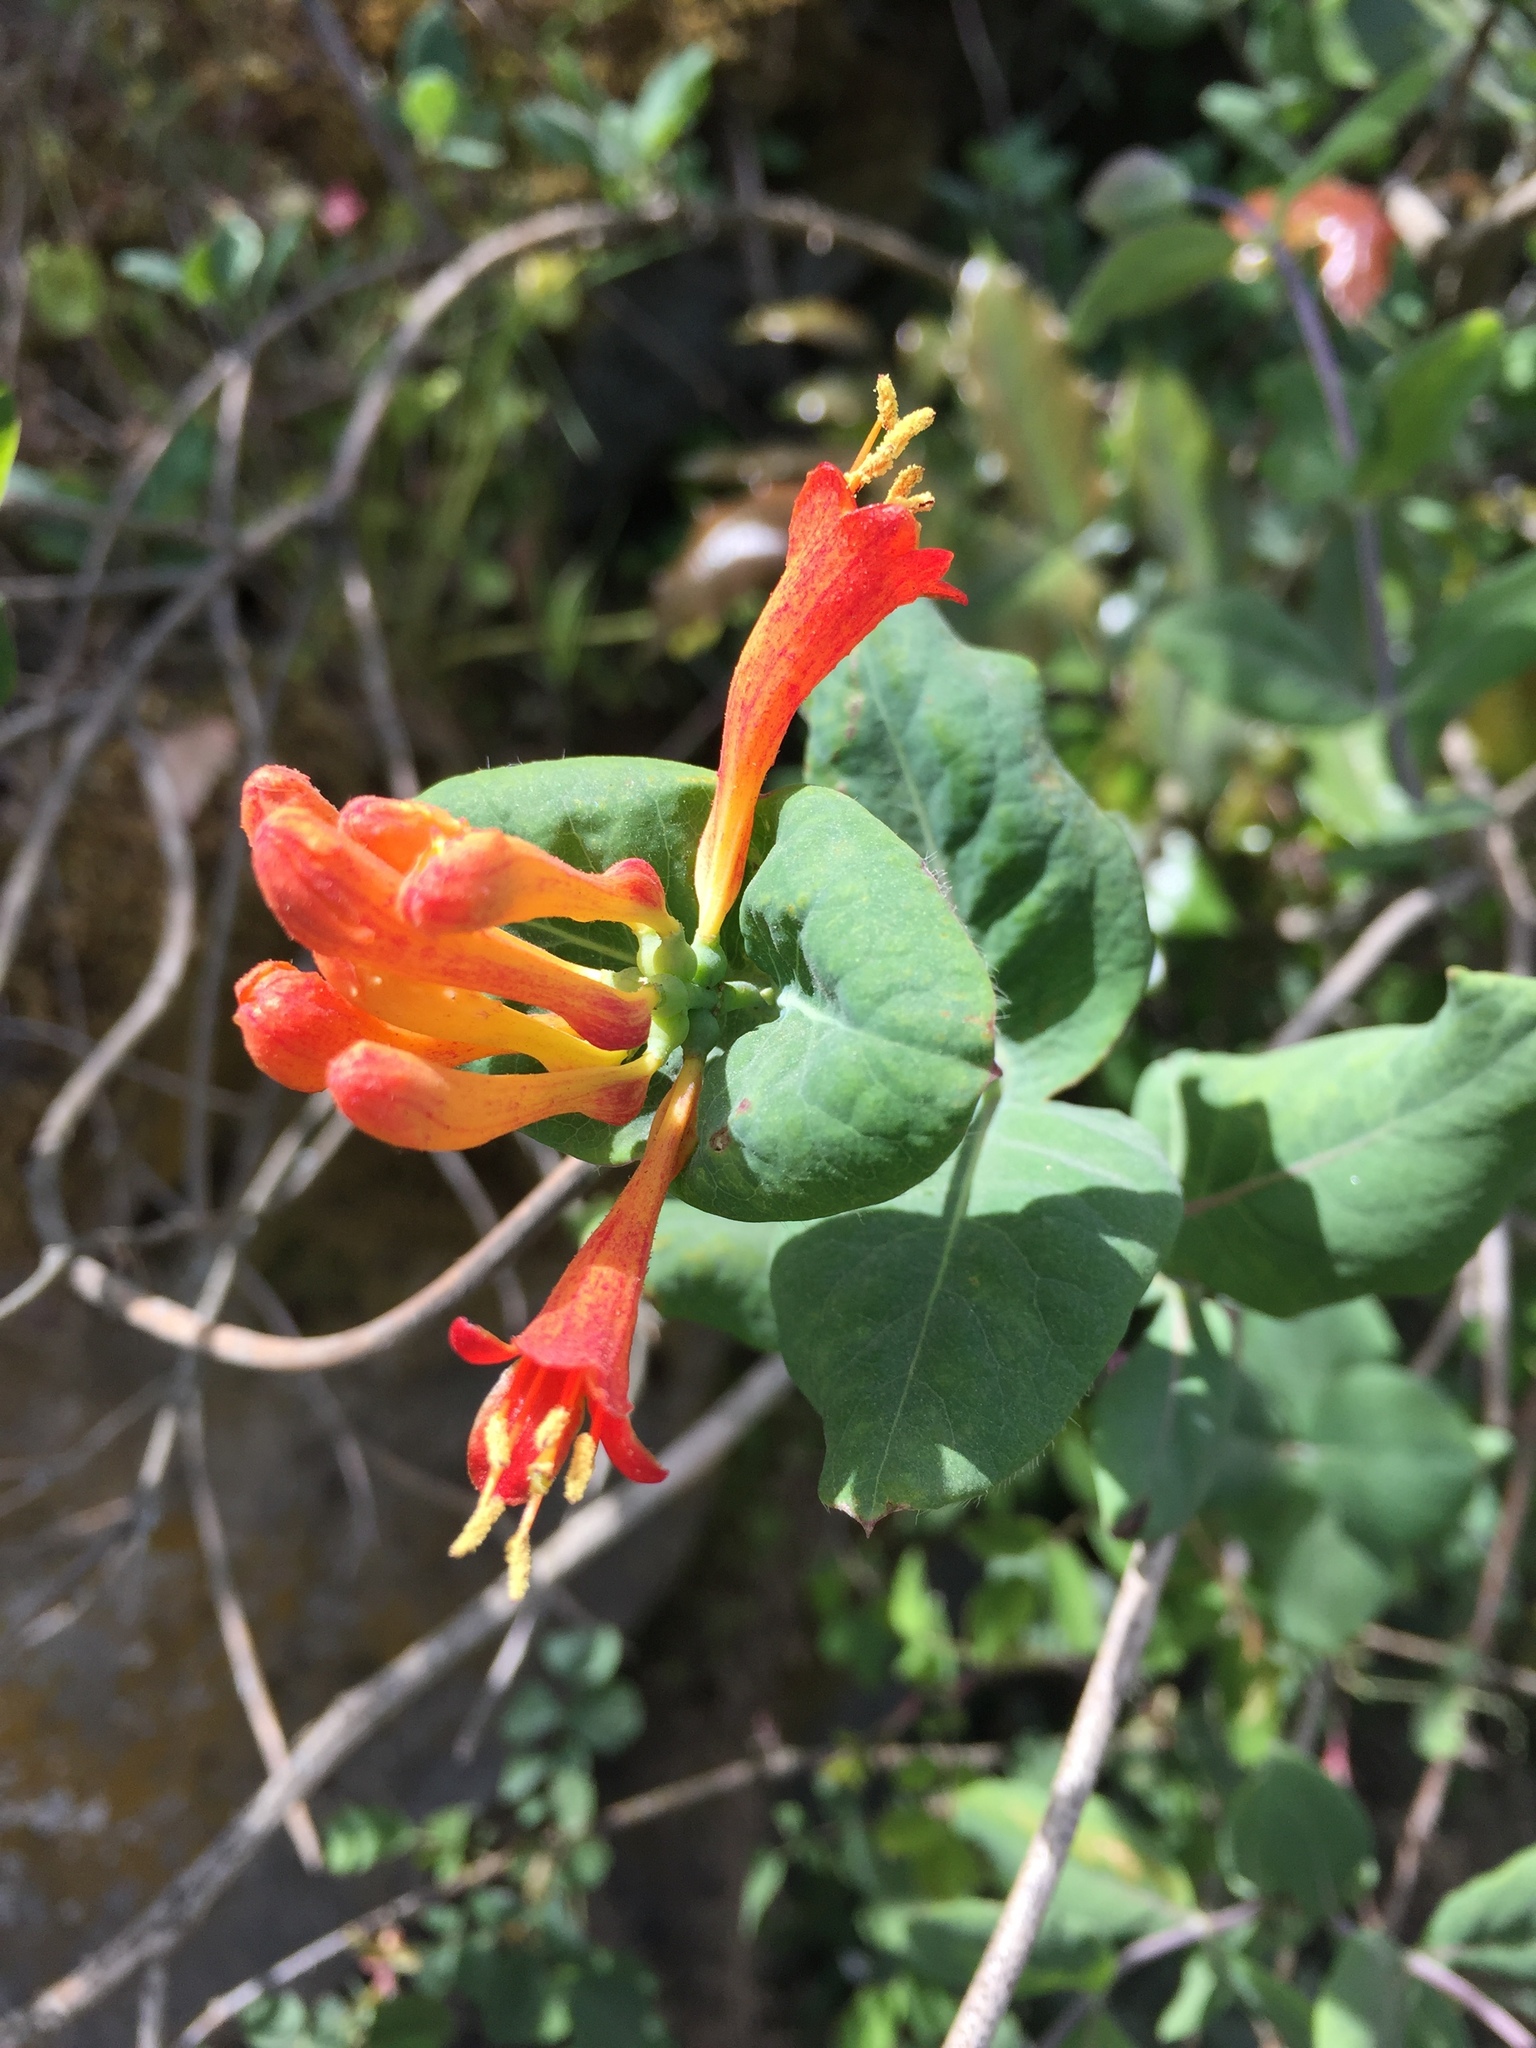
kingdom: Plantae
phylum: Tracheophyta
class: Magnoliopsida
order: Dipsacales
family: Caprifoliaceae
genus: Lonicera
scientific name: Lonicera ciliosa
